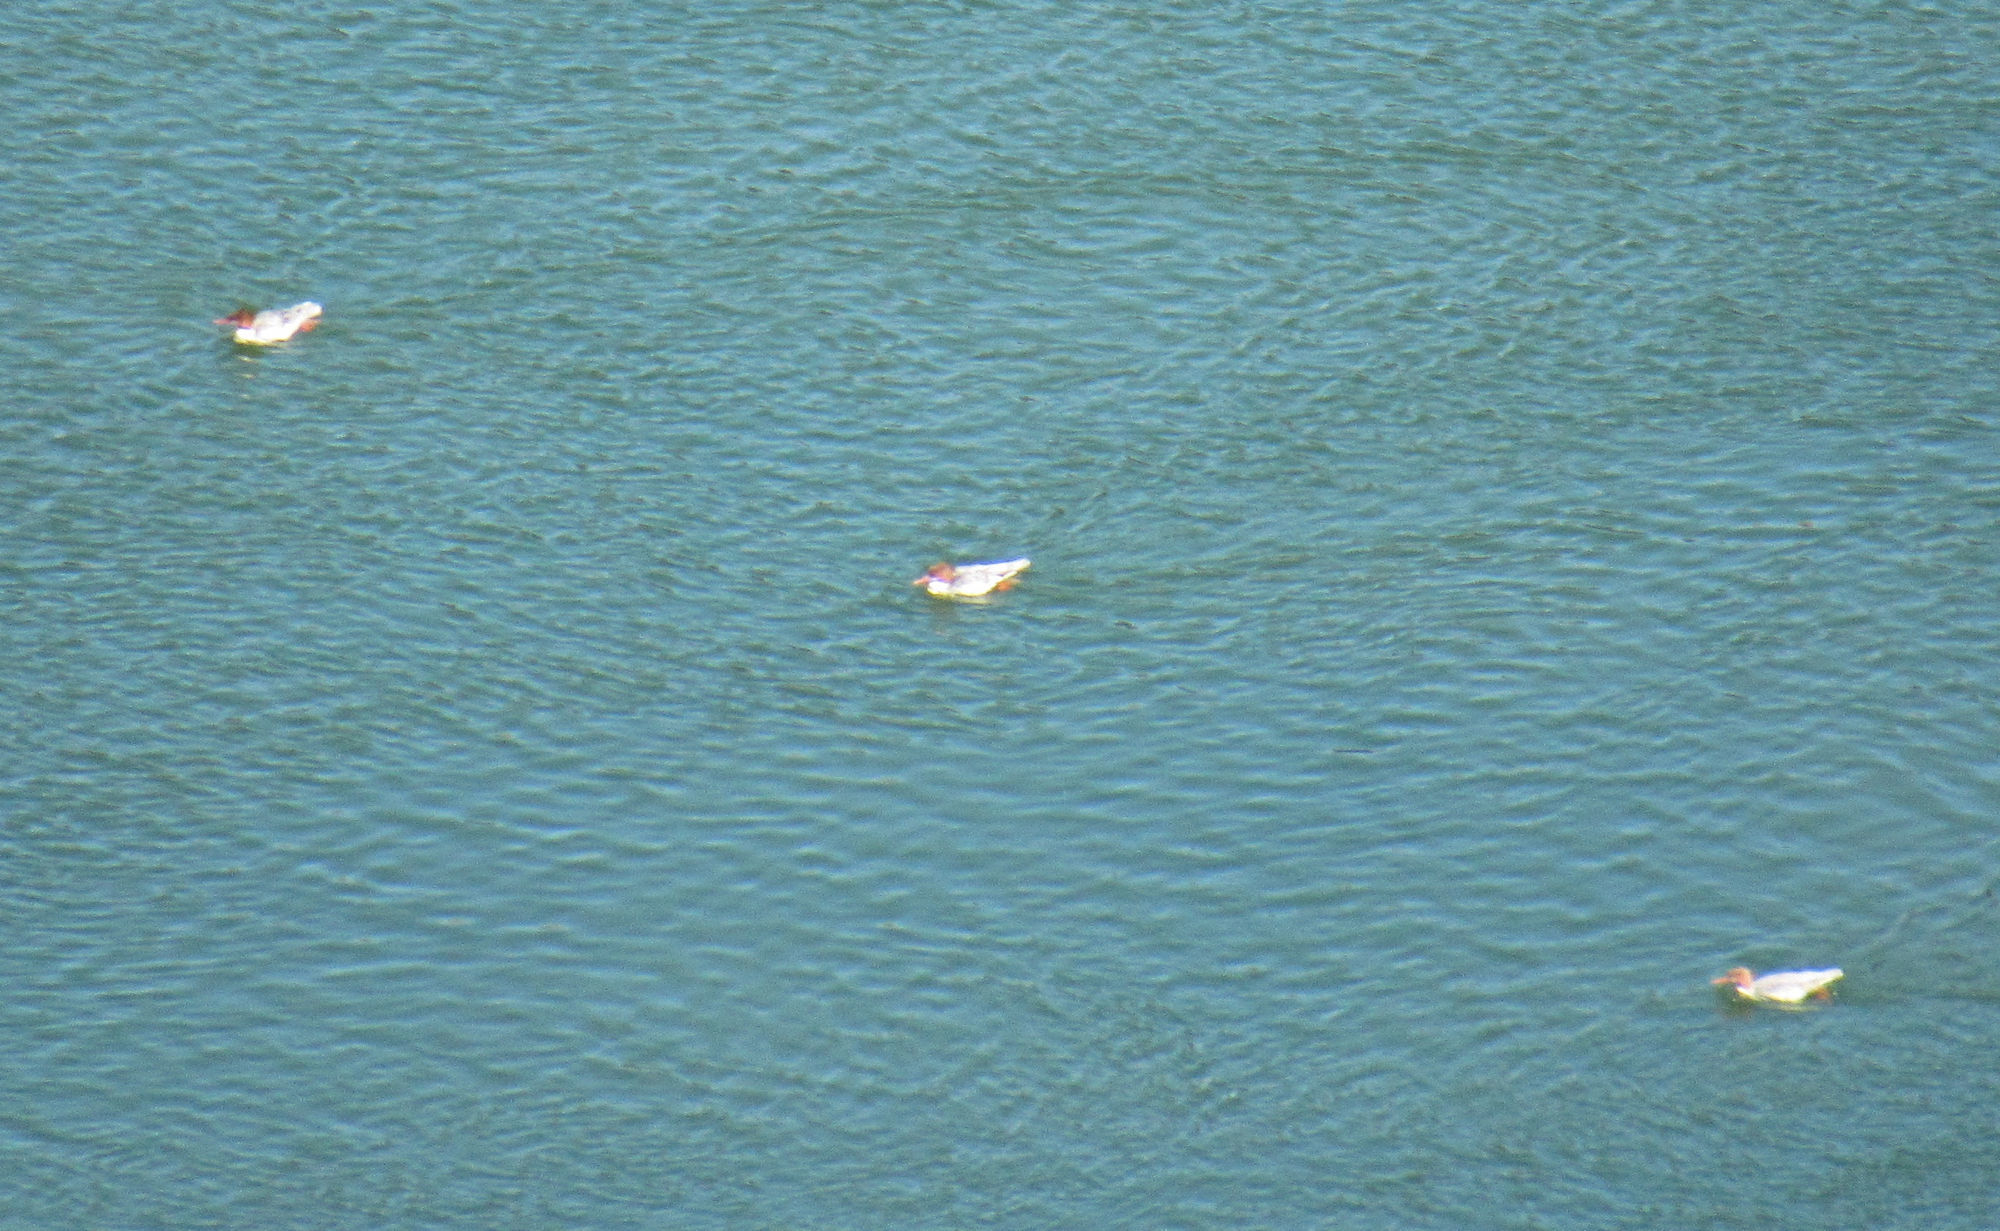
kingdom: Animalia
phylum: Chordata
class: Aves
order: Anseriformes
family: Anatidae
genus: Mergus
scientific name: Mergus merganser
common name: Common merganser
